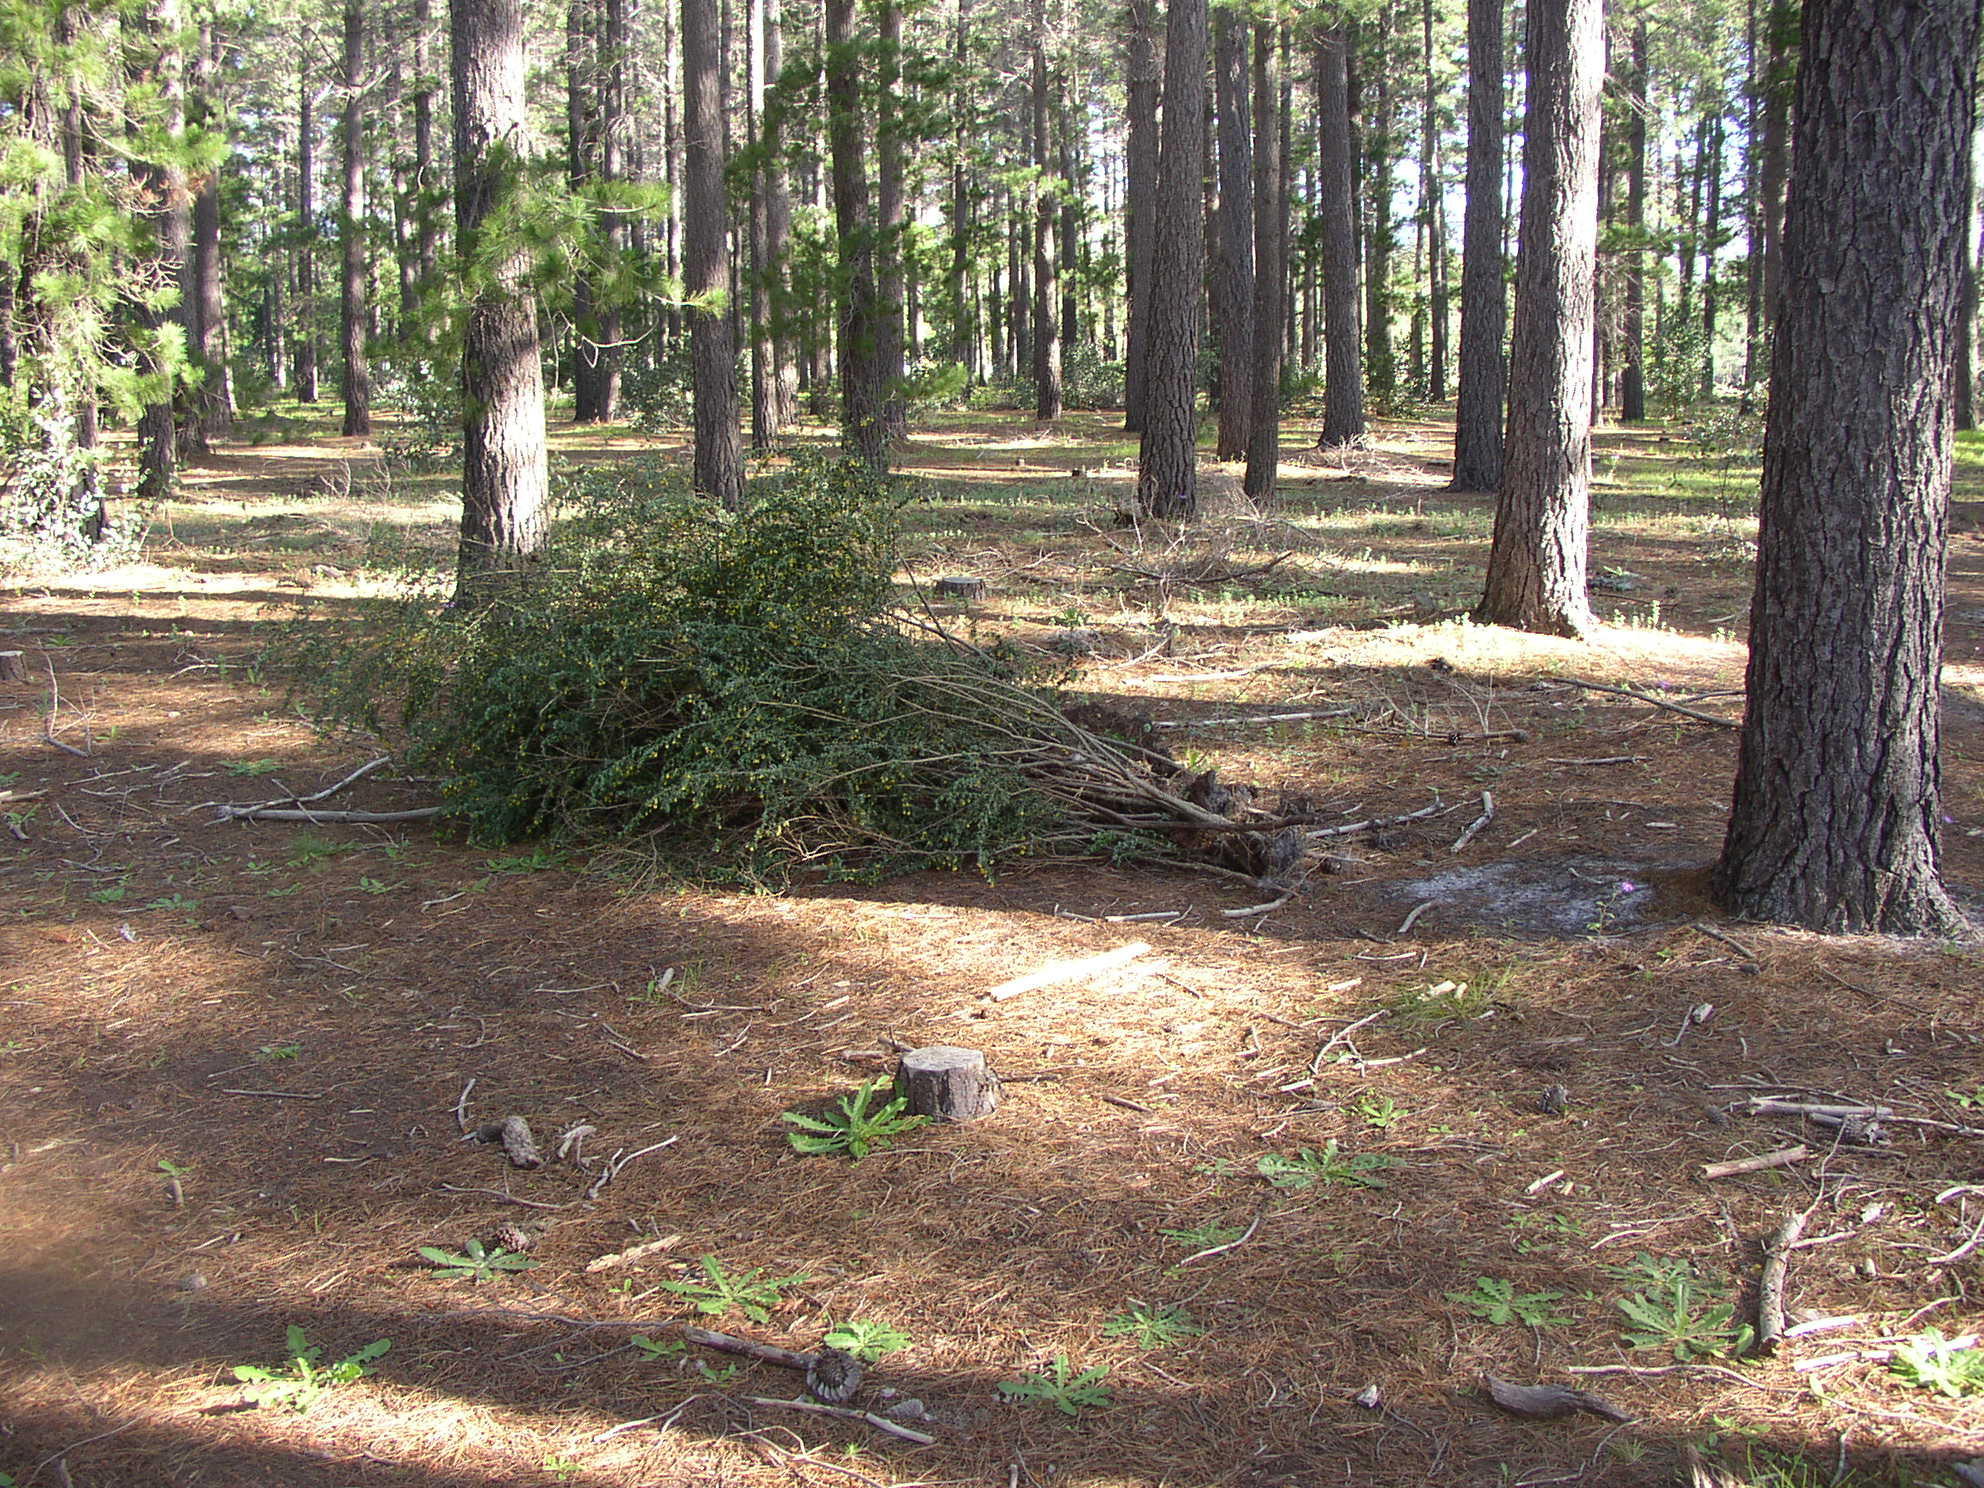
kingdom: Plantae
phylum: Tracheophyta
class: Magnoliopsida
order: Fabales
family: Fabaceae
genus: Genista
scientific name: Genista monspessulana
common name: Montpellier broom
